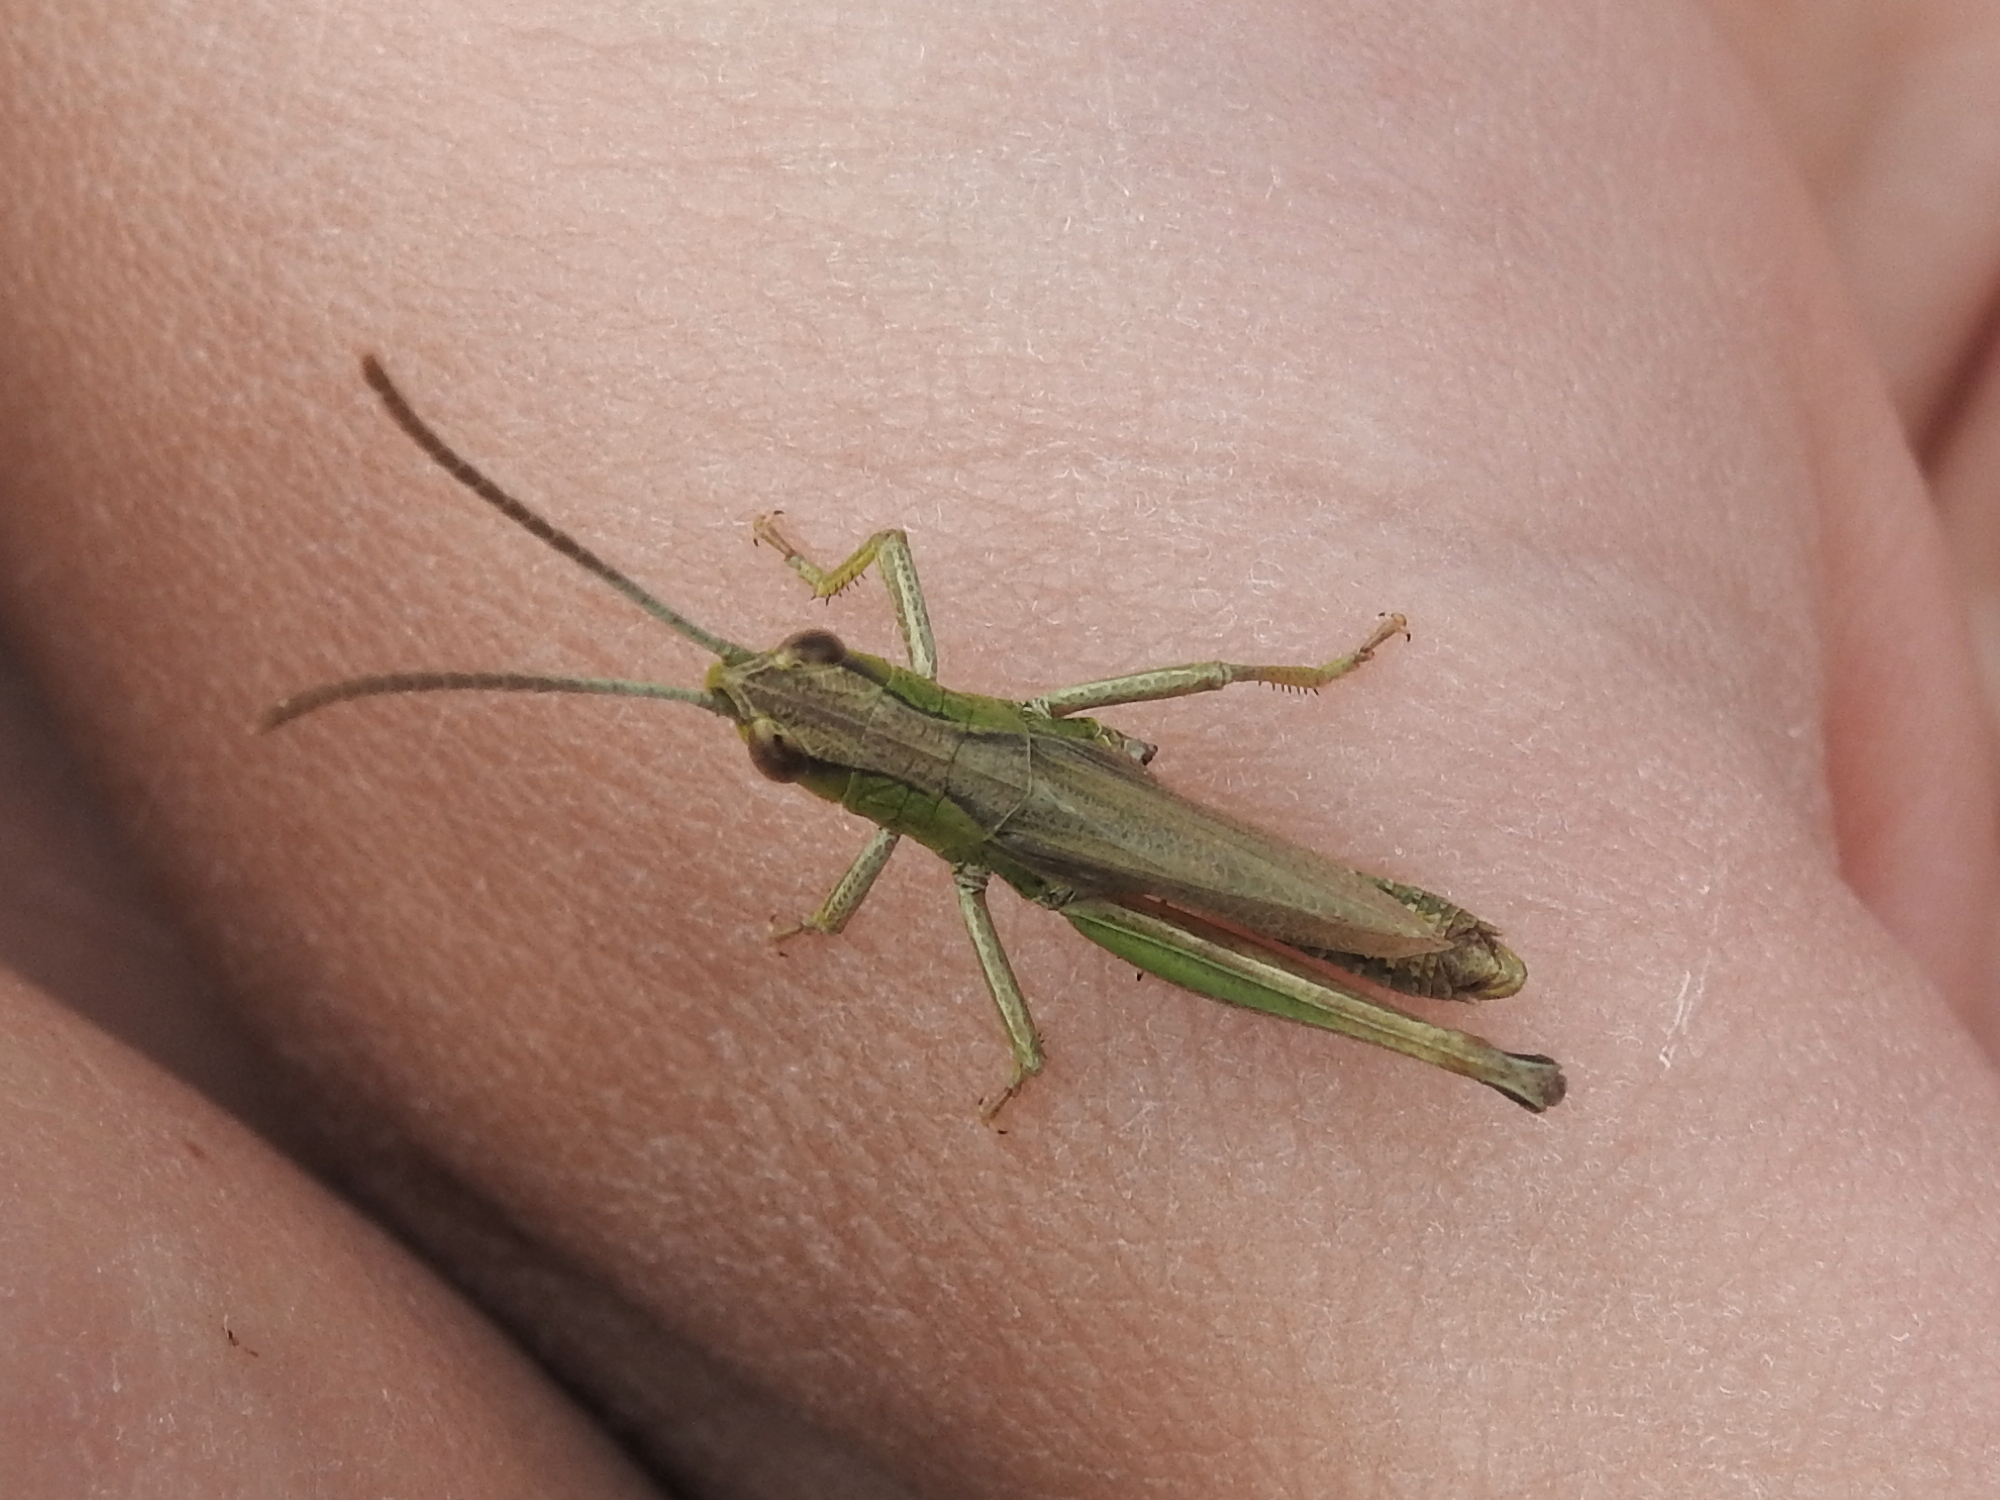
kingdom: Animalia
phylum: Arthropoda
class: Insecta
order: Orthoptera
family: Acrididae
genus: Pseudochorthippus
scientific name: Pseudochorthippus parallelus
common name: Meadow grasshopper
